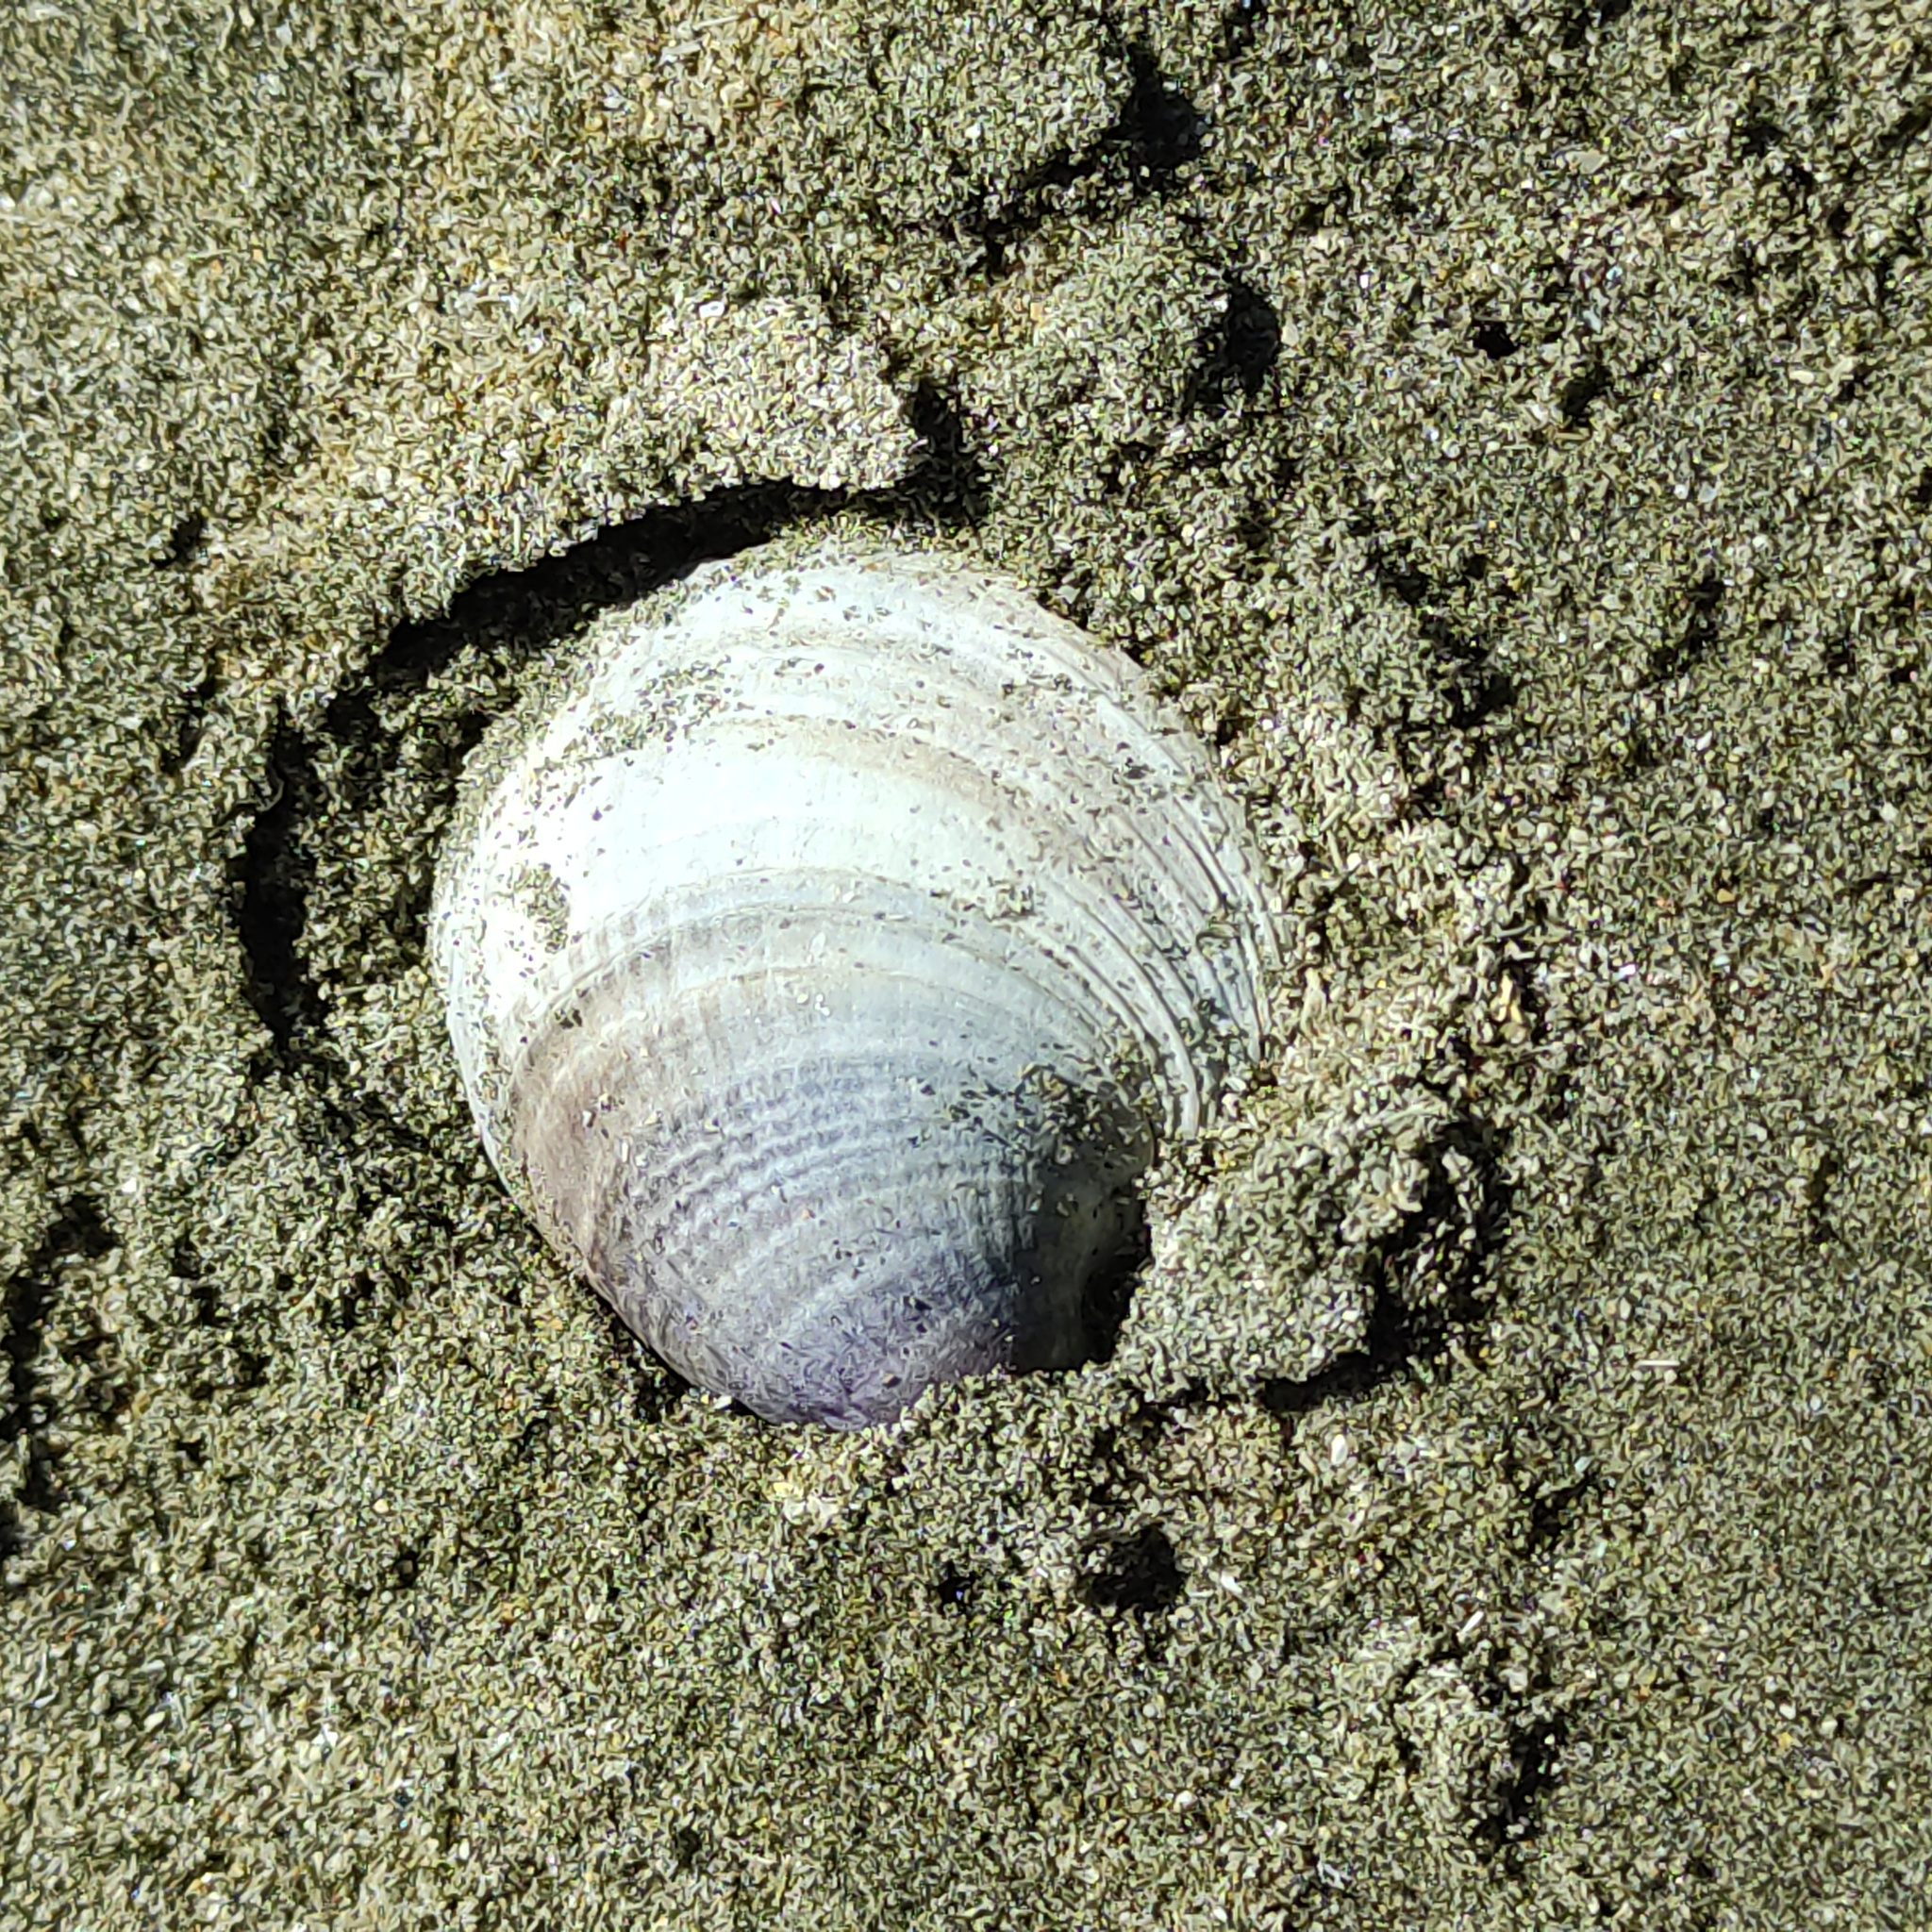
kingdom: Animalia
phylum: Mollusca
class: Bivalvia
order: Venerida
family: Veneridae
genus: Austrovenus
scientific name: Austrovenus stutchburyi
